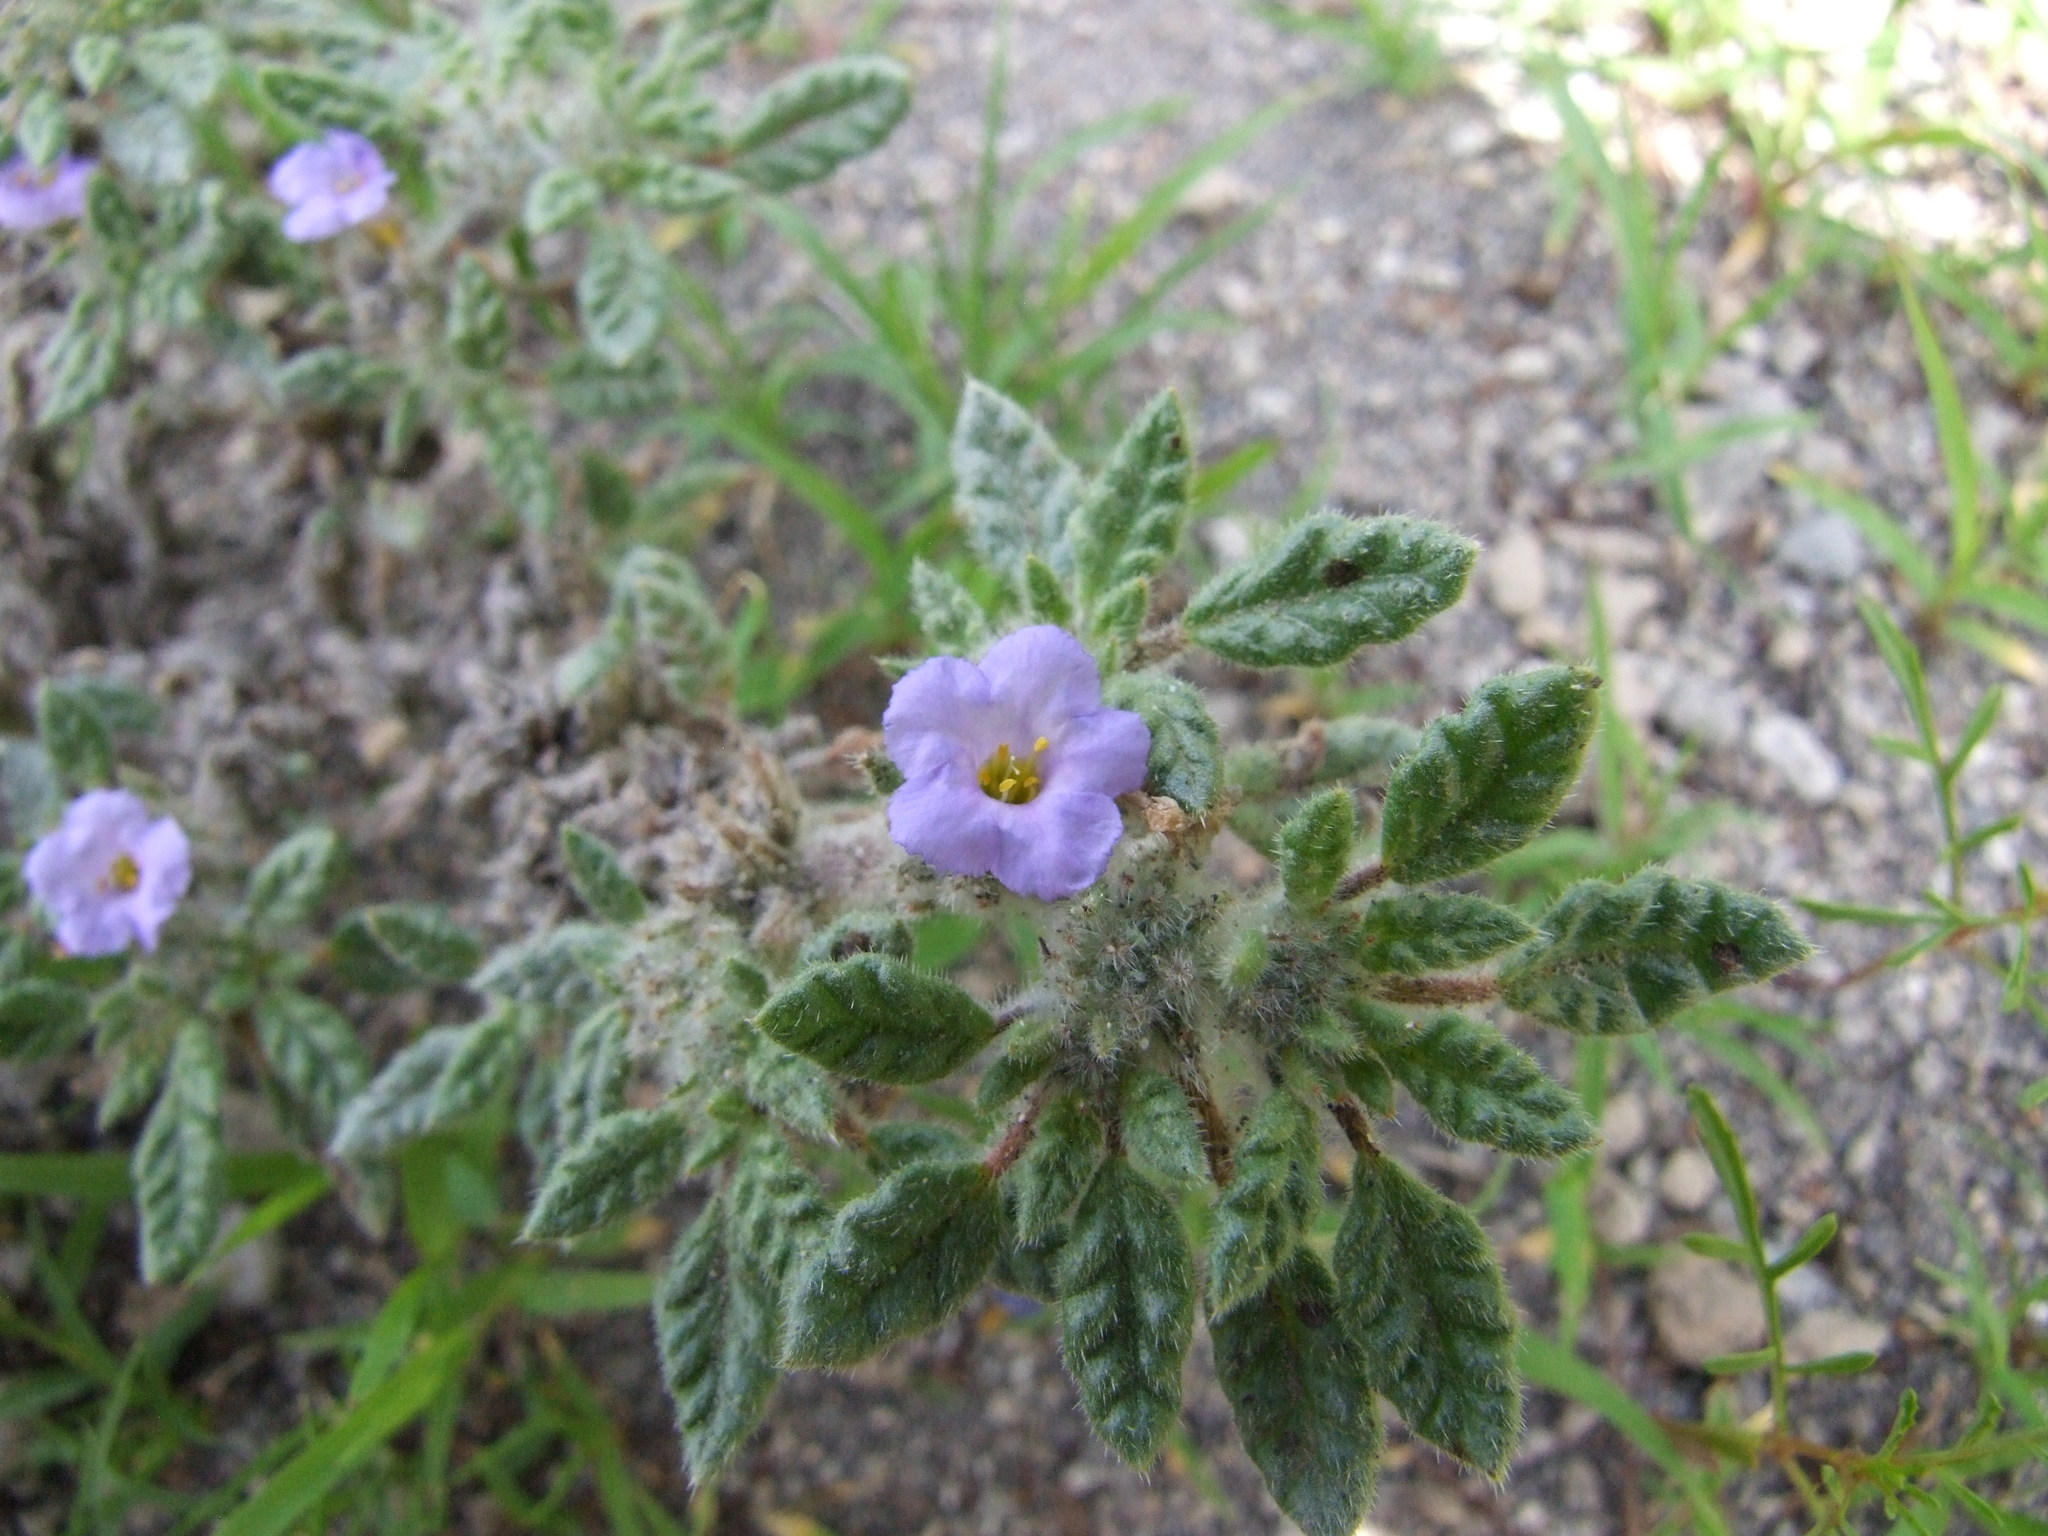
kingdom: Plantae
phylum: Tracheophyta
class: Magnoliopsida
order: Boraginales
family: Ehretiaceae
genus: Tiquilia
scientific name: Tiquilia elongata
